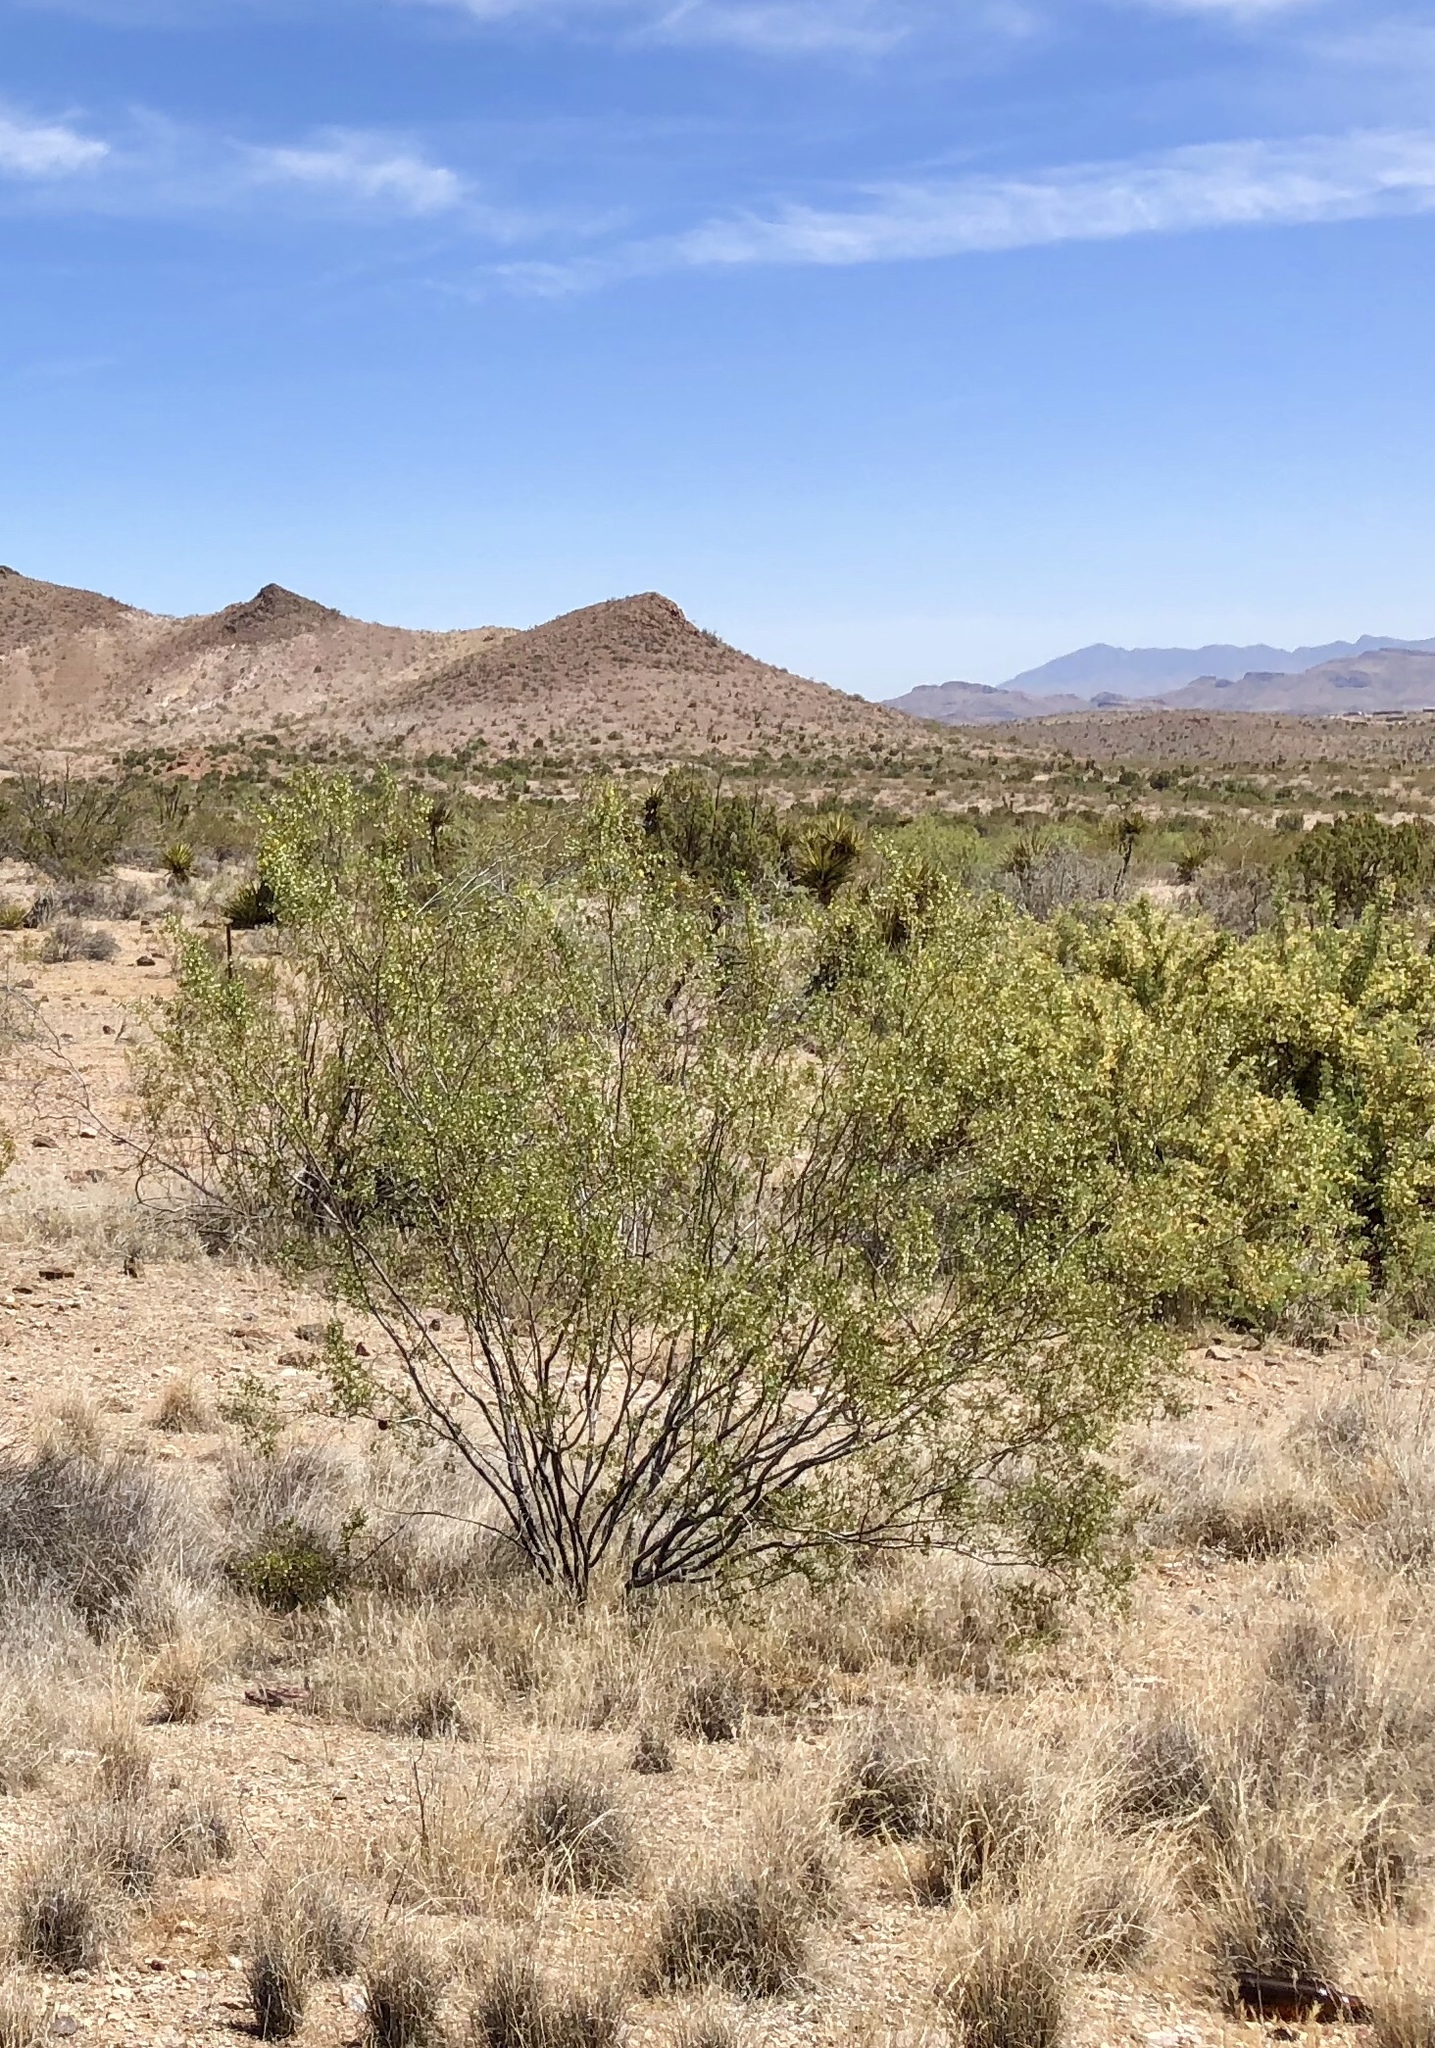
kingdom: Plantae
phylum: Tracheophyta
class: Magnoliopsida
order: Zygophyllales
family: Zygophyllaceae
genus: Larrea
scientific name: Larrea tridentata
